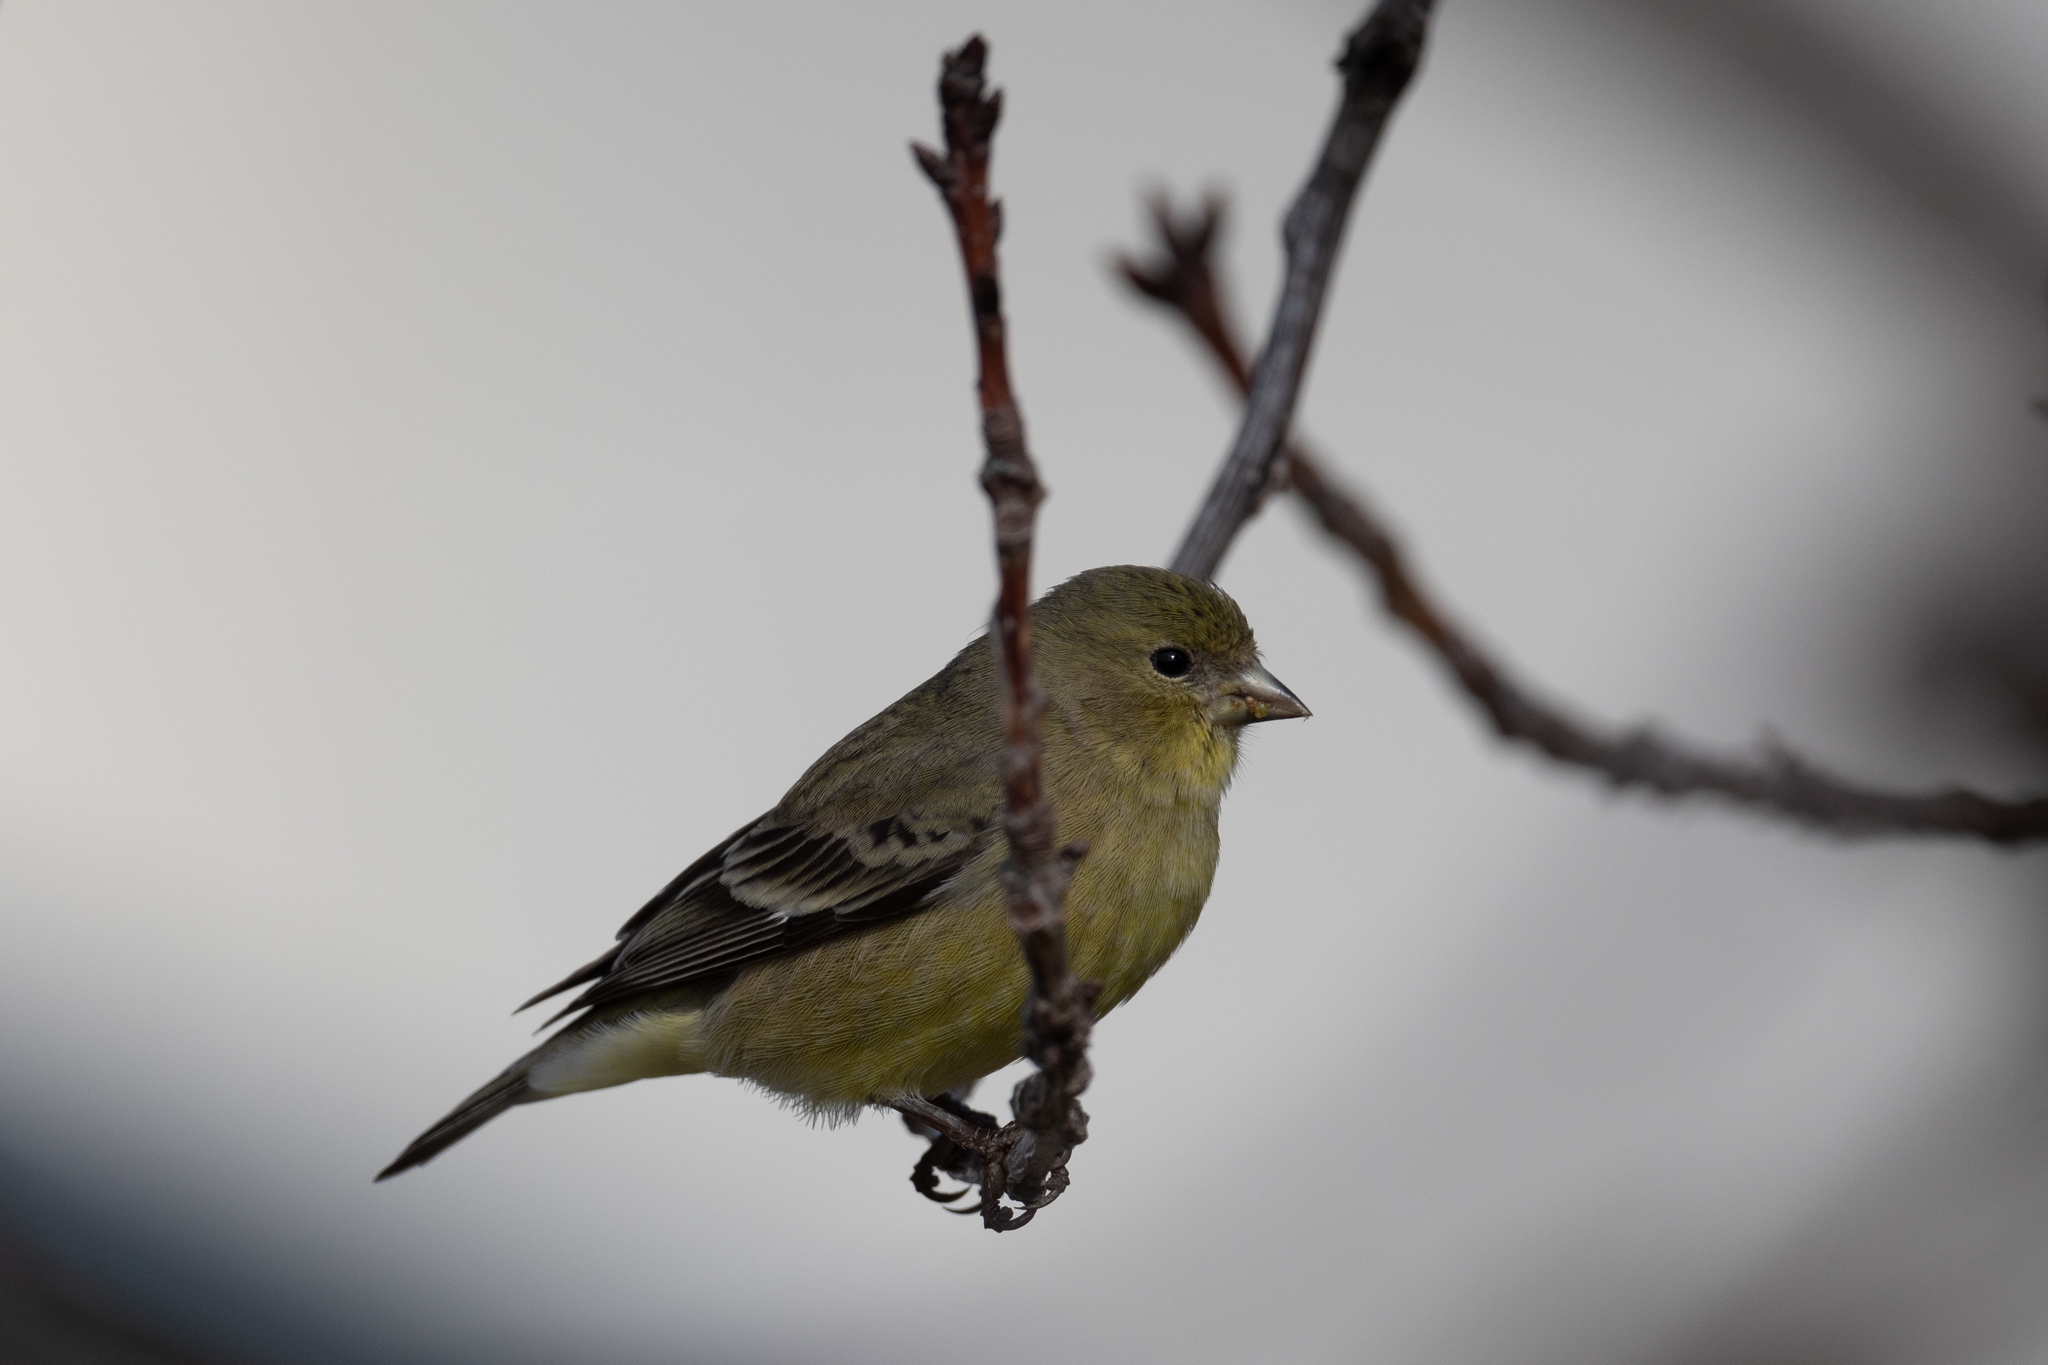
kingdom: Animalia
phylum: Chordata
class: Aves
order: Passeriformes
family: Fringillidae
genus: Spinus
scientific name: Spinus psaltria
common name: Lesser goldfinch
